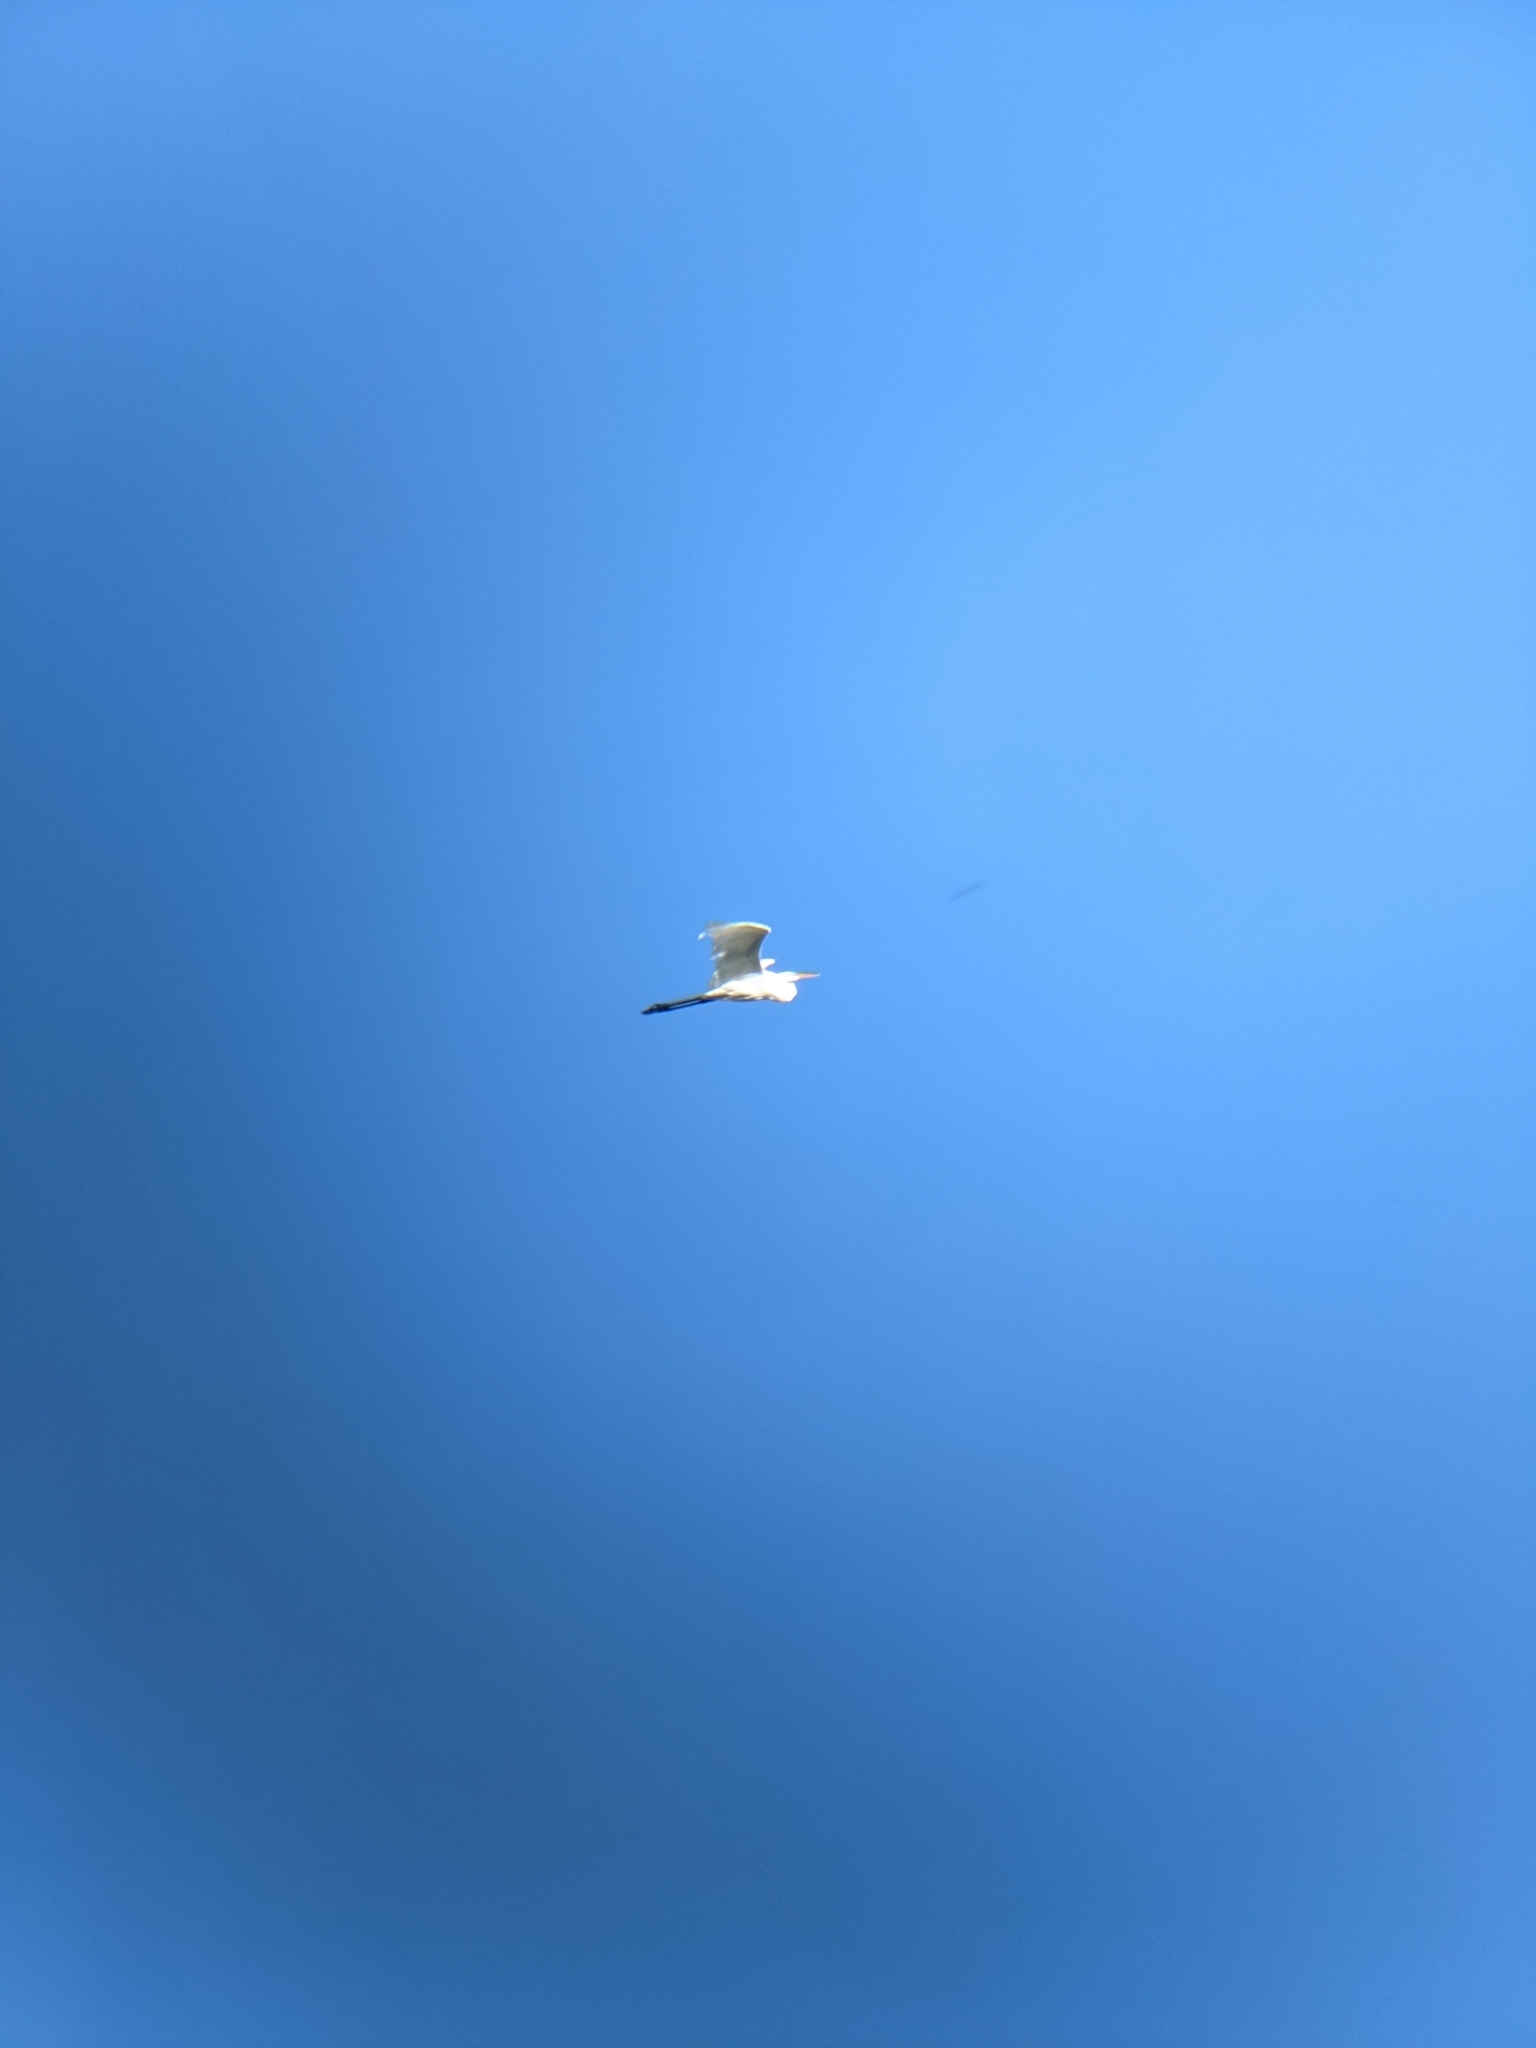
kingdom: Animalia
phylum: Chordata
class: Aves
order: Pelecaniformes
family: Ardeidae
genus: Ardea
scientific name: Ardea alba
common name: Great egret
